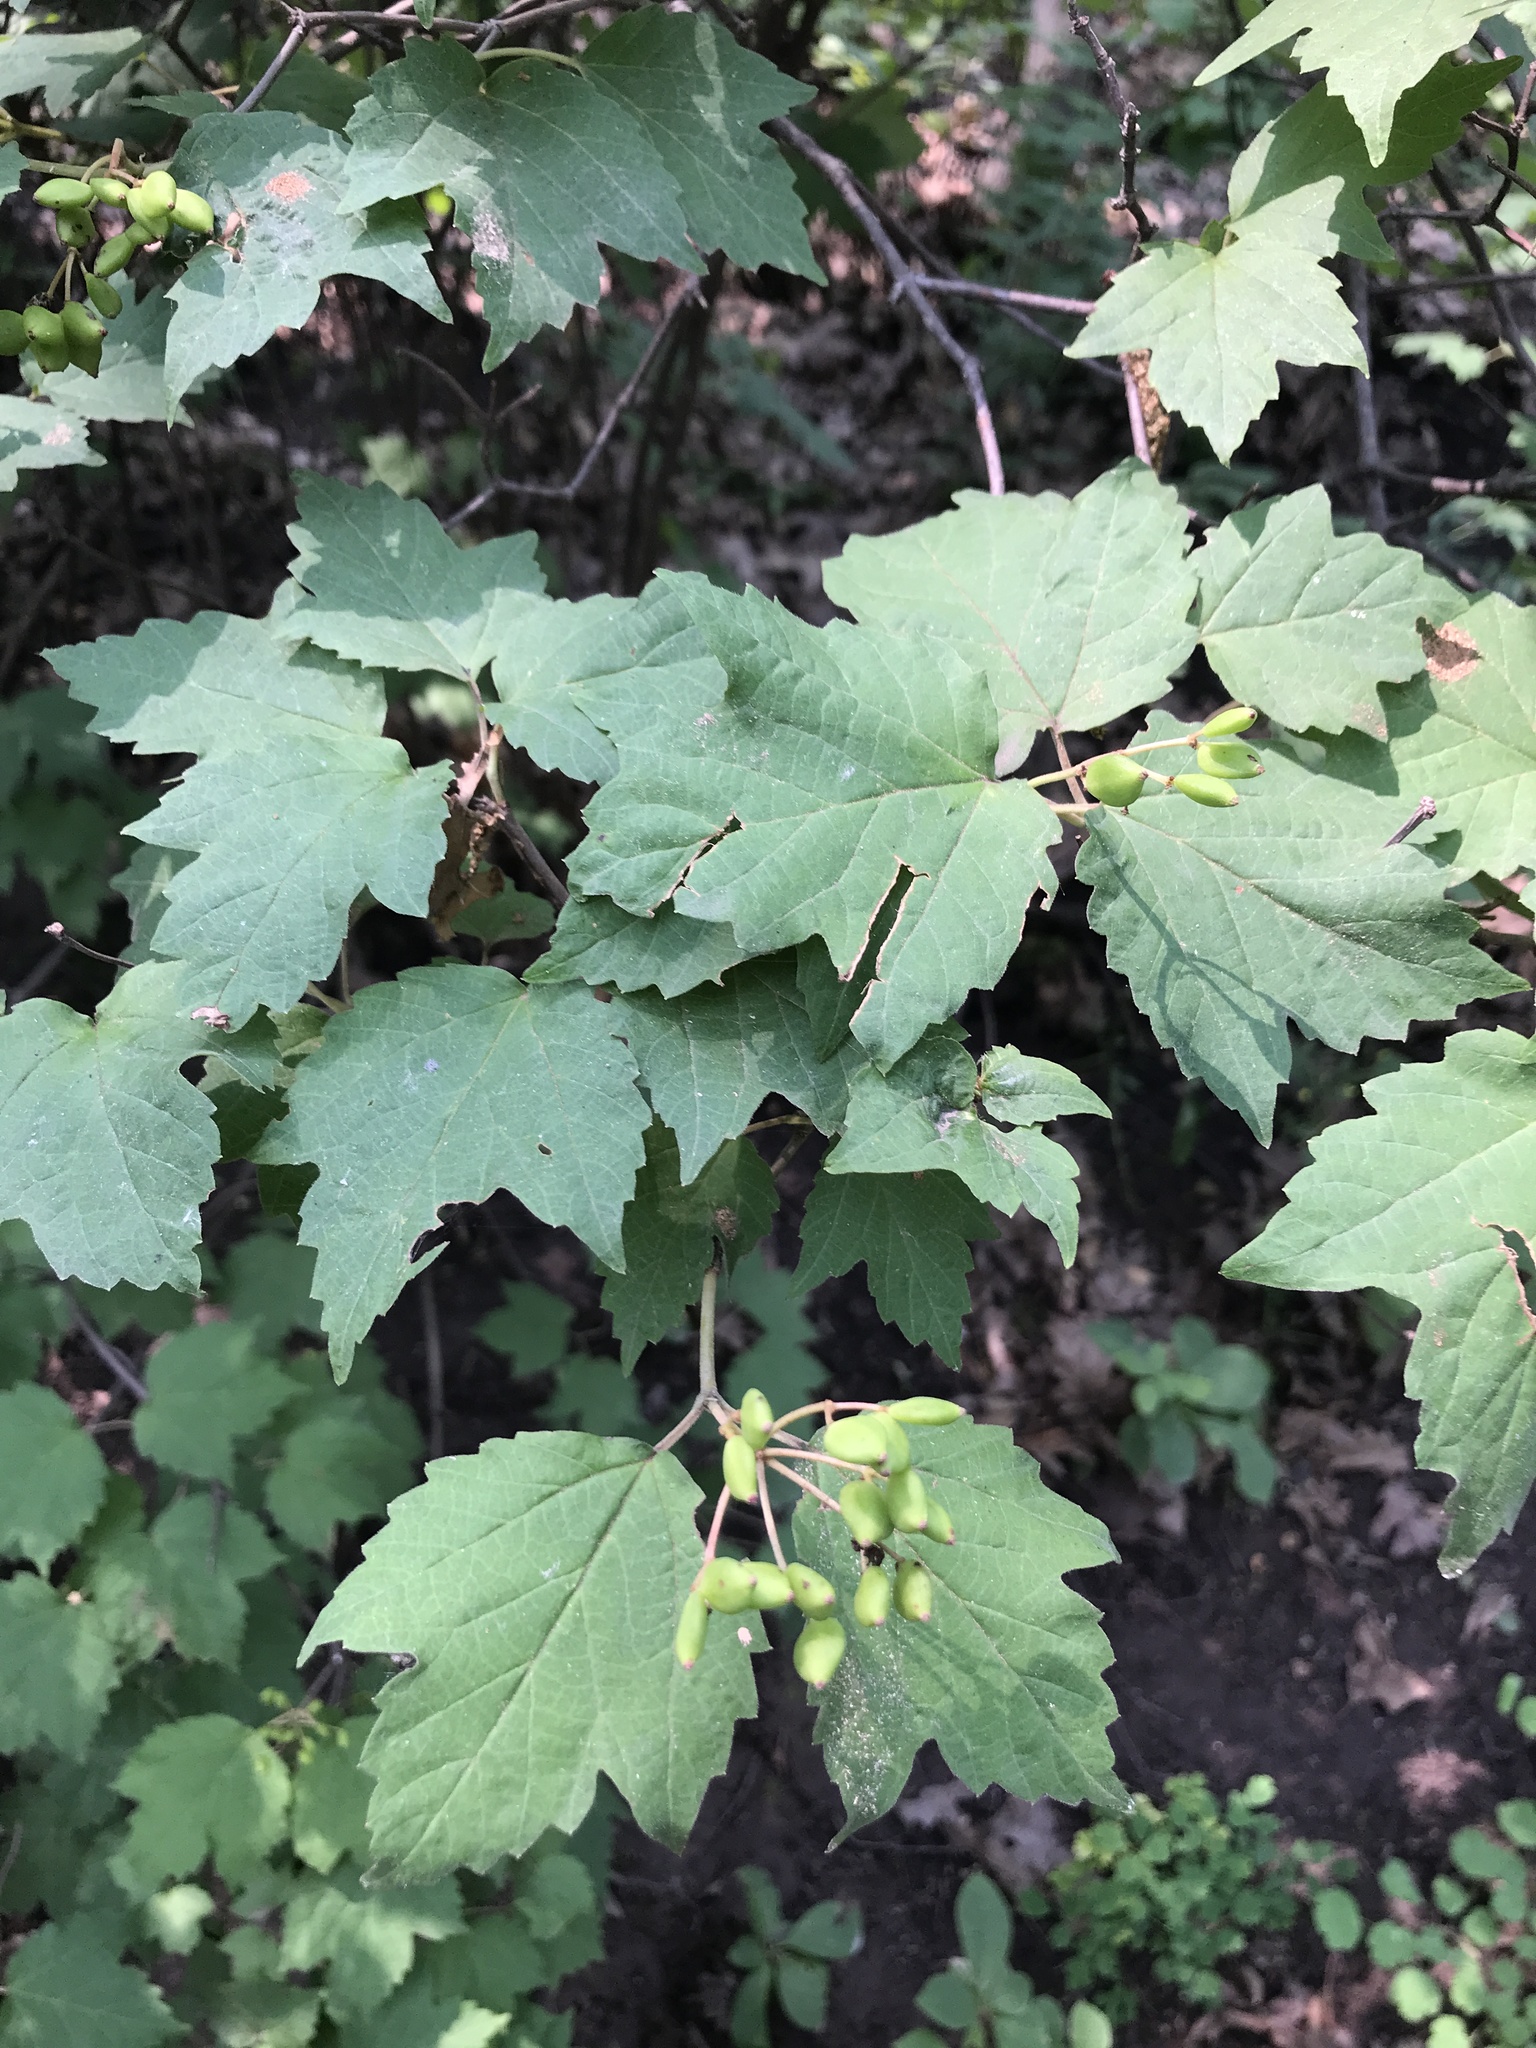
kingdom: Plantae
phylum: Tracheophyta
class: Magnoliopsida
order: Dipsacales
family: Viburnaceae
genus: Viburnum
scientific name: Viburnum acerifolium
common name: Dockmackie
